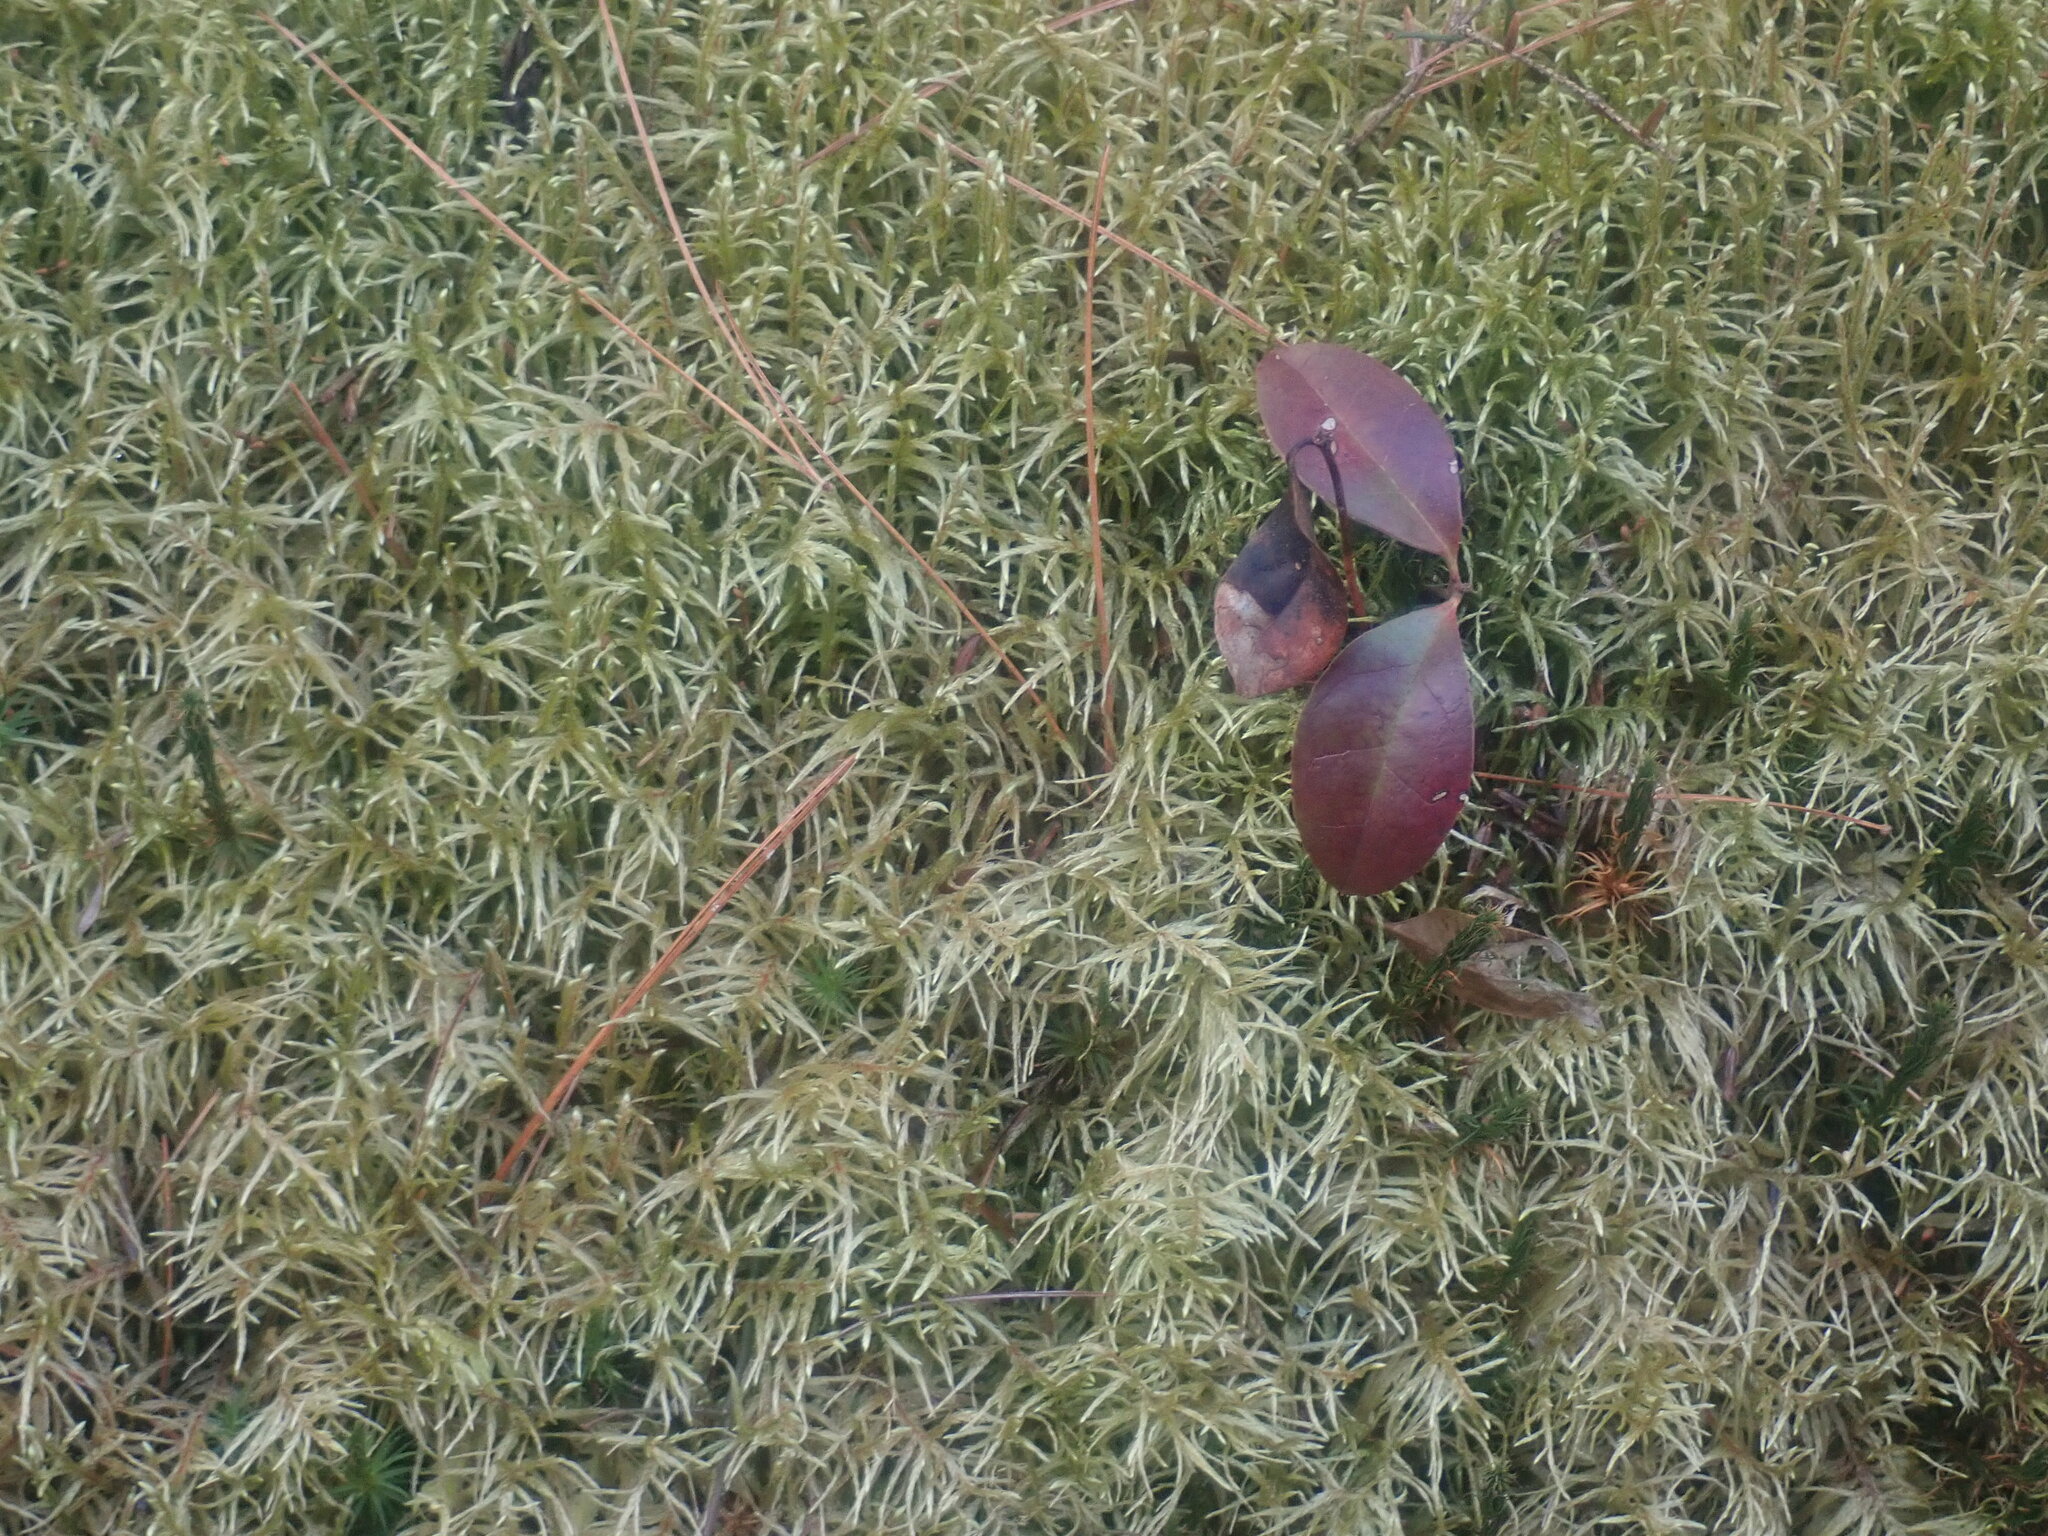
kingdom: Plantae
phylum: Bryophyta
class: Bryopsida
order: Hypnales
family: Hylocomiaceae
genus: Pleurozium
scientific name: Pleurozium schreberi
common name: Red-stemmed feather moss
